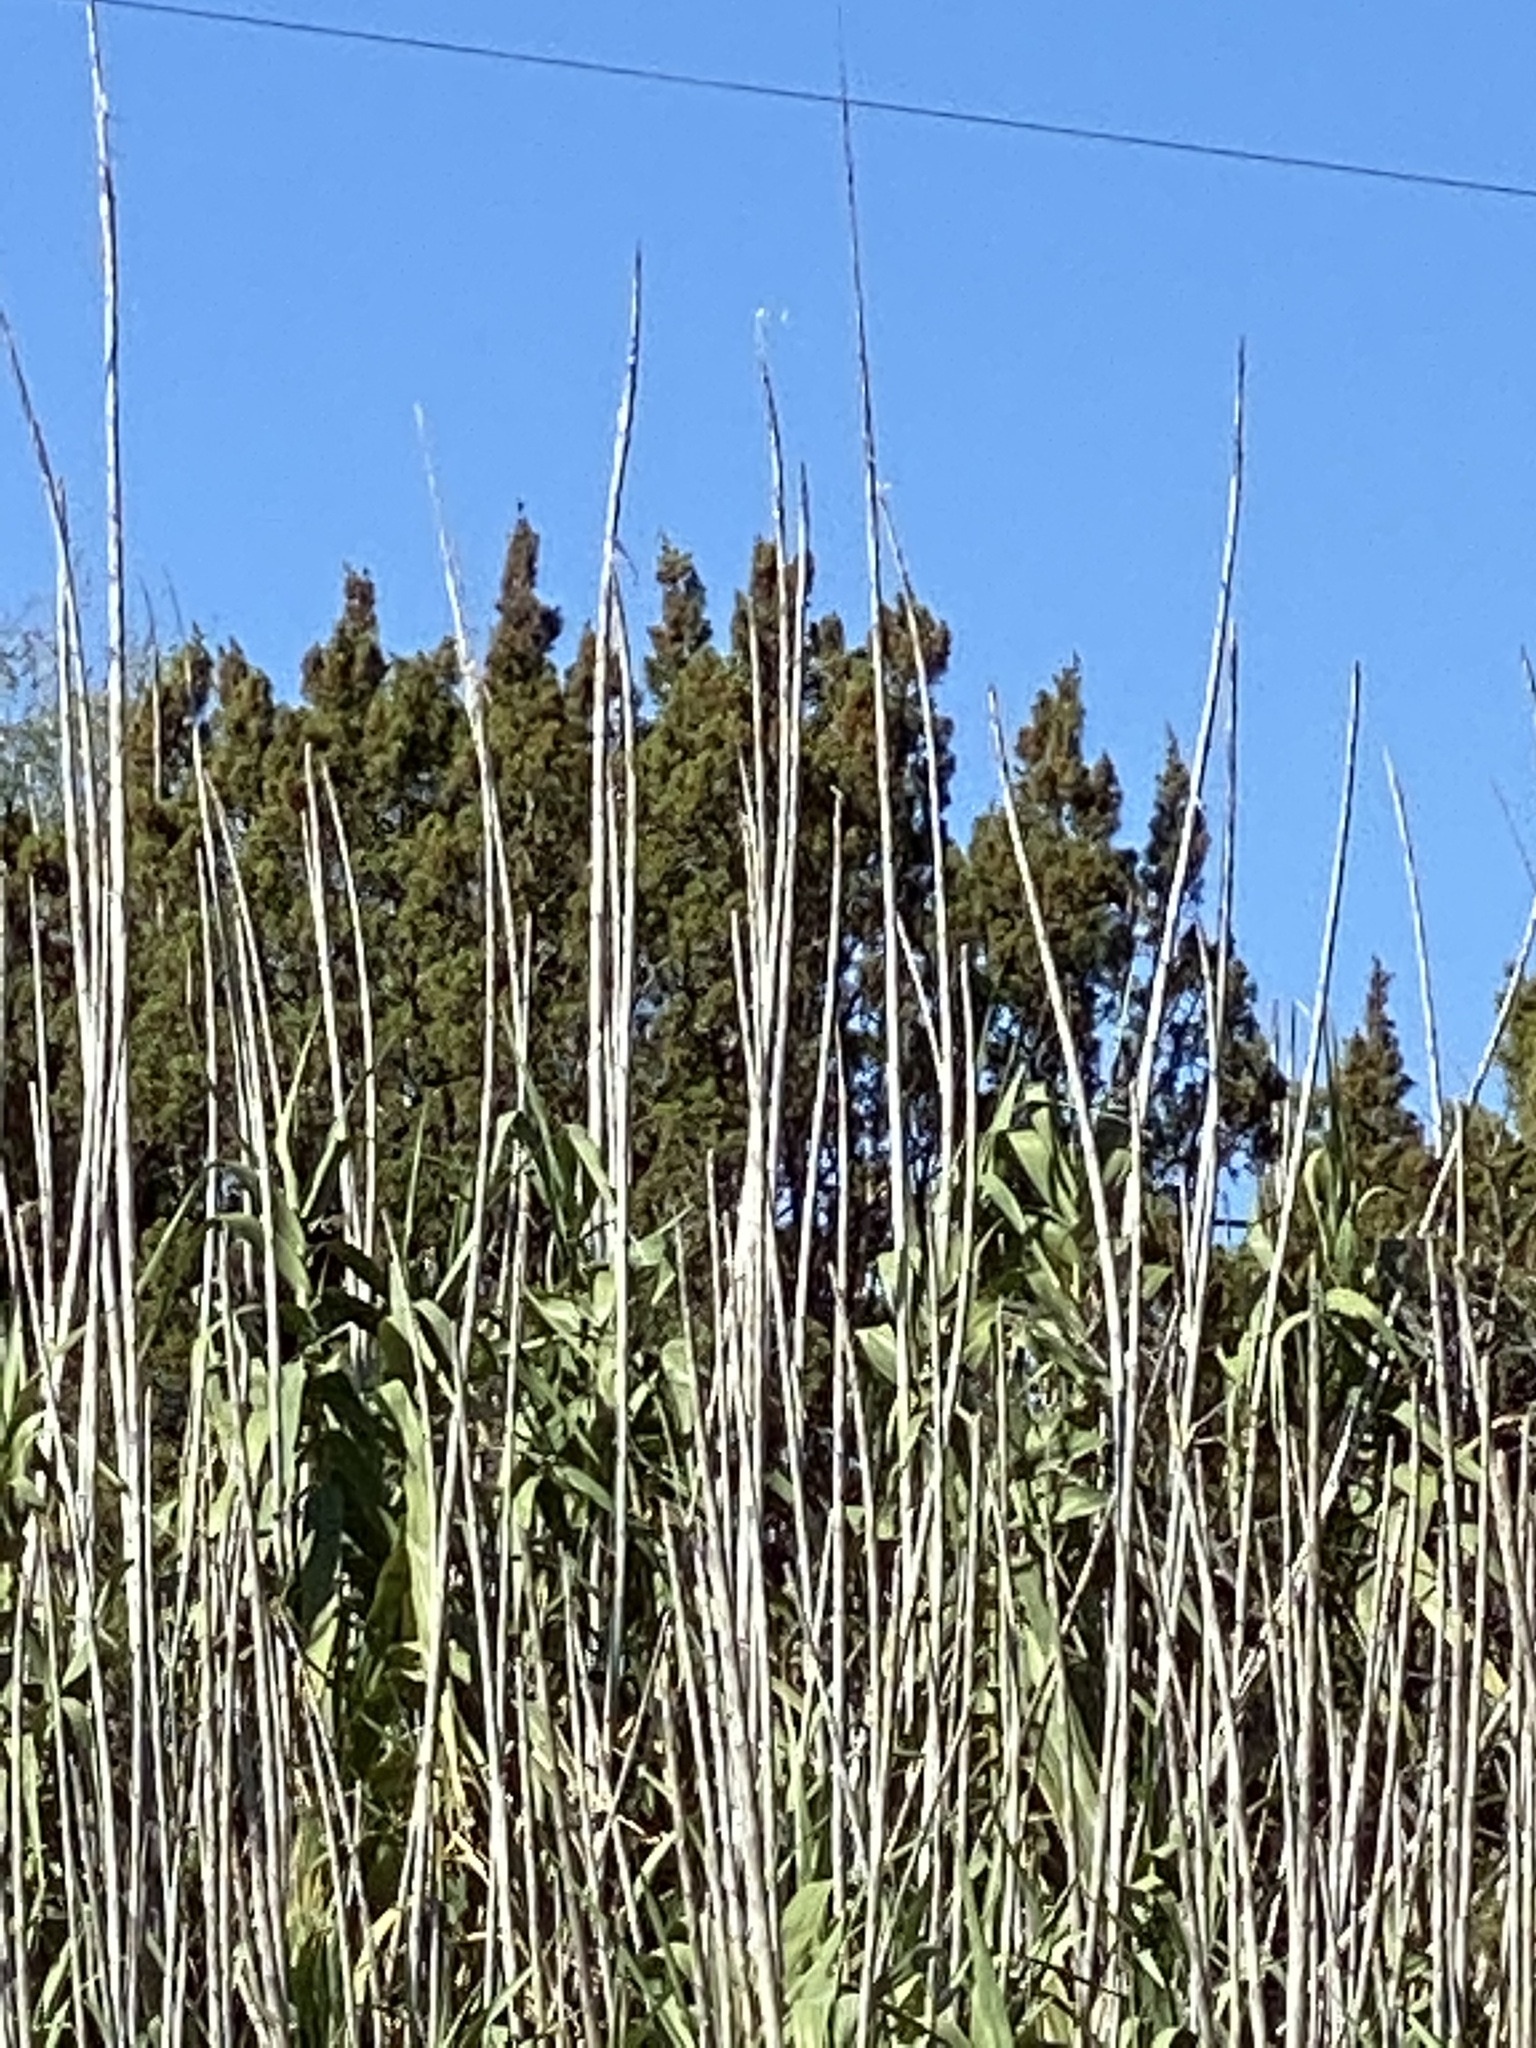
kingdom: Plantae
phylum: Tracheophyta
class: Liliopsida
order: Poales
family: Poaceae
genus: Arundo
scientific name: Arundo donax
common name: Giant reed
